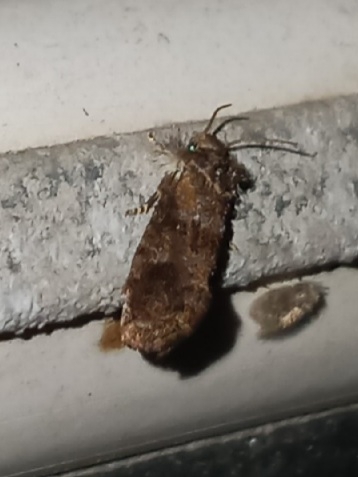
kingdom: Animalia
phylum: Arthropoda
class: Insecta
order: Lepidoptera
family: Tineidae
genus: Acrolophus
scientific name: Acrolophus panamae
